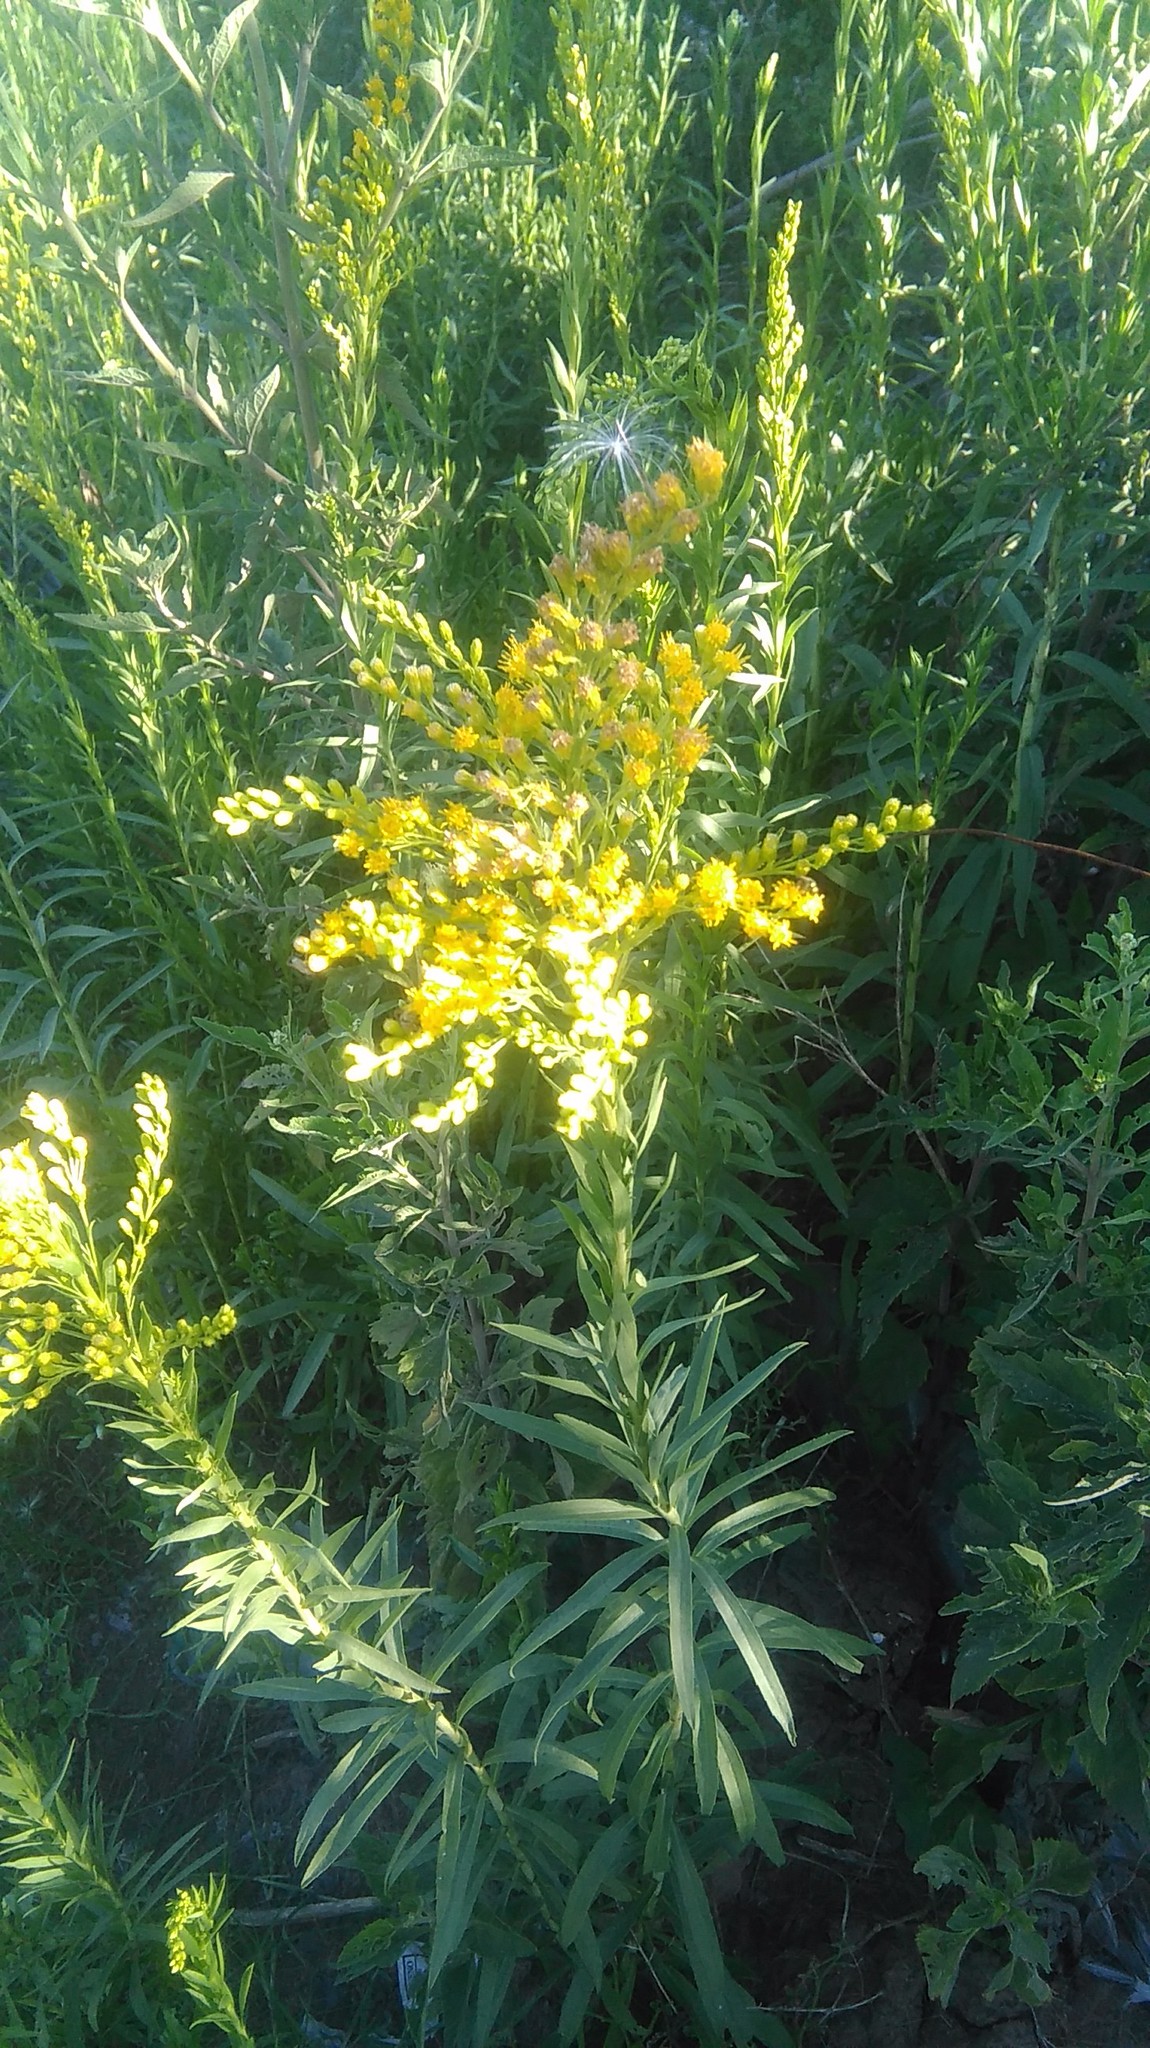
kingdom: Plantae
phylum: Tracheophyta
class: Magnoliopsida
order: Asterales
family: Asteraceae
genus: Solidago
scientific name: Solidago chilensis
